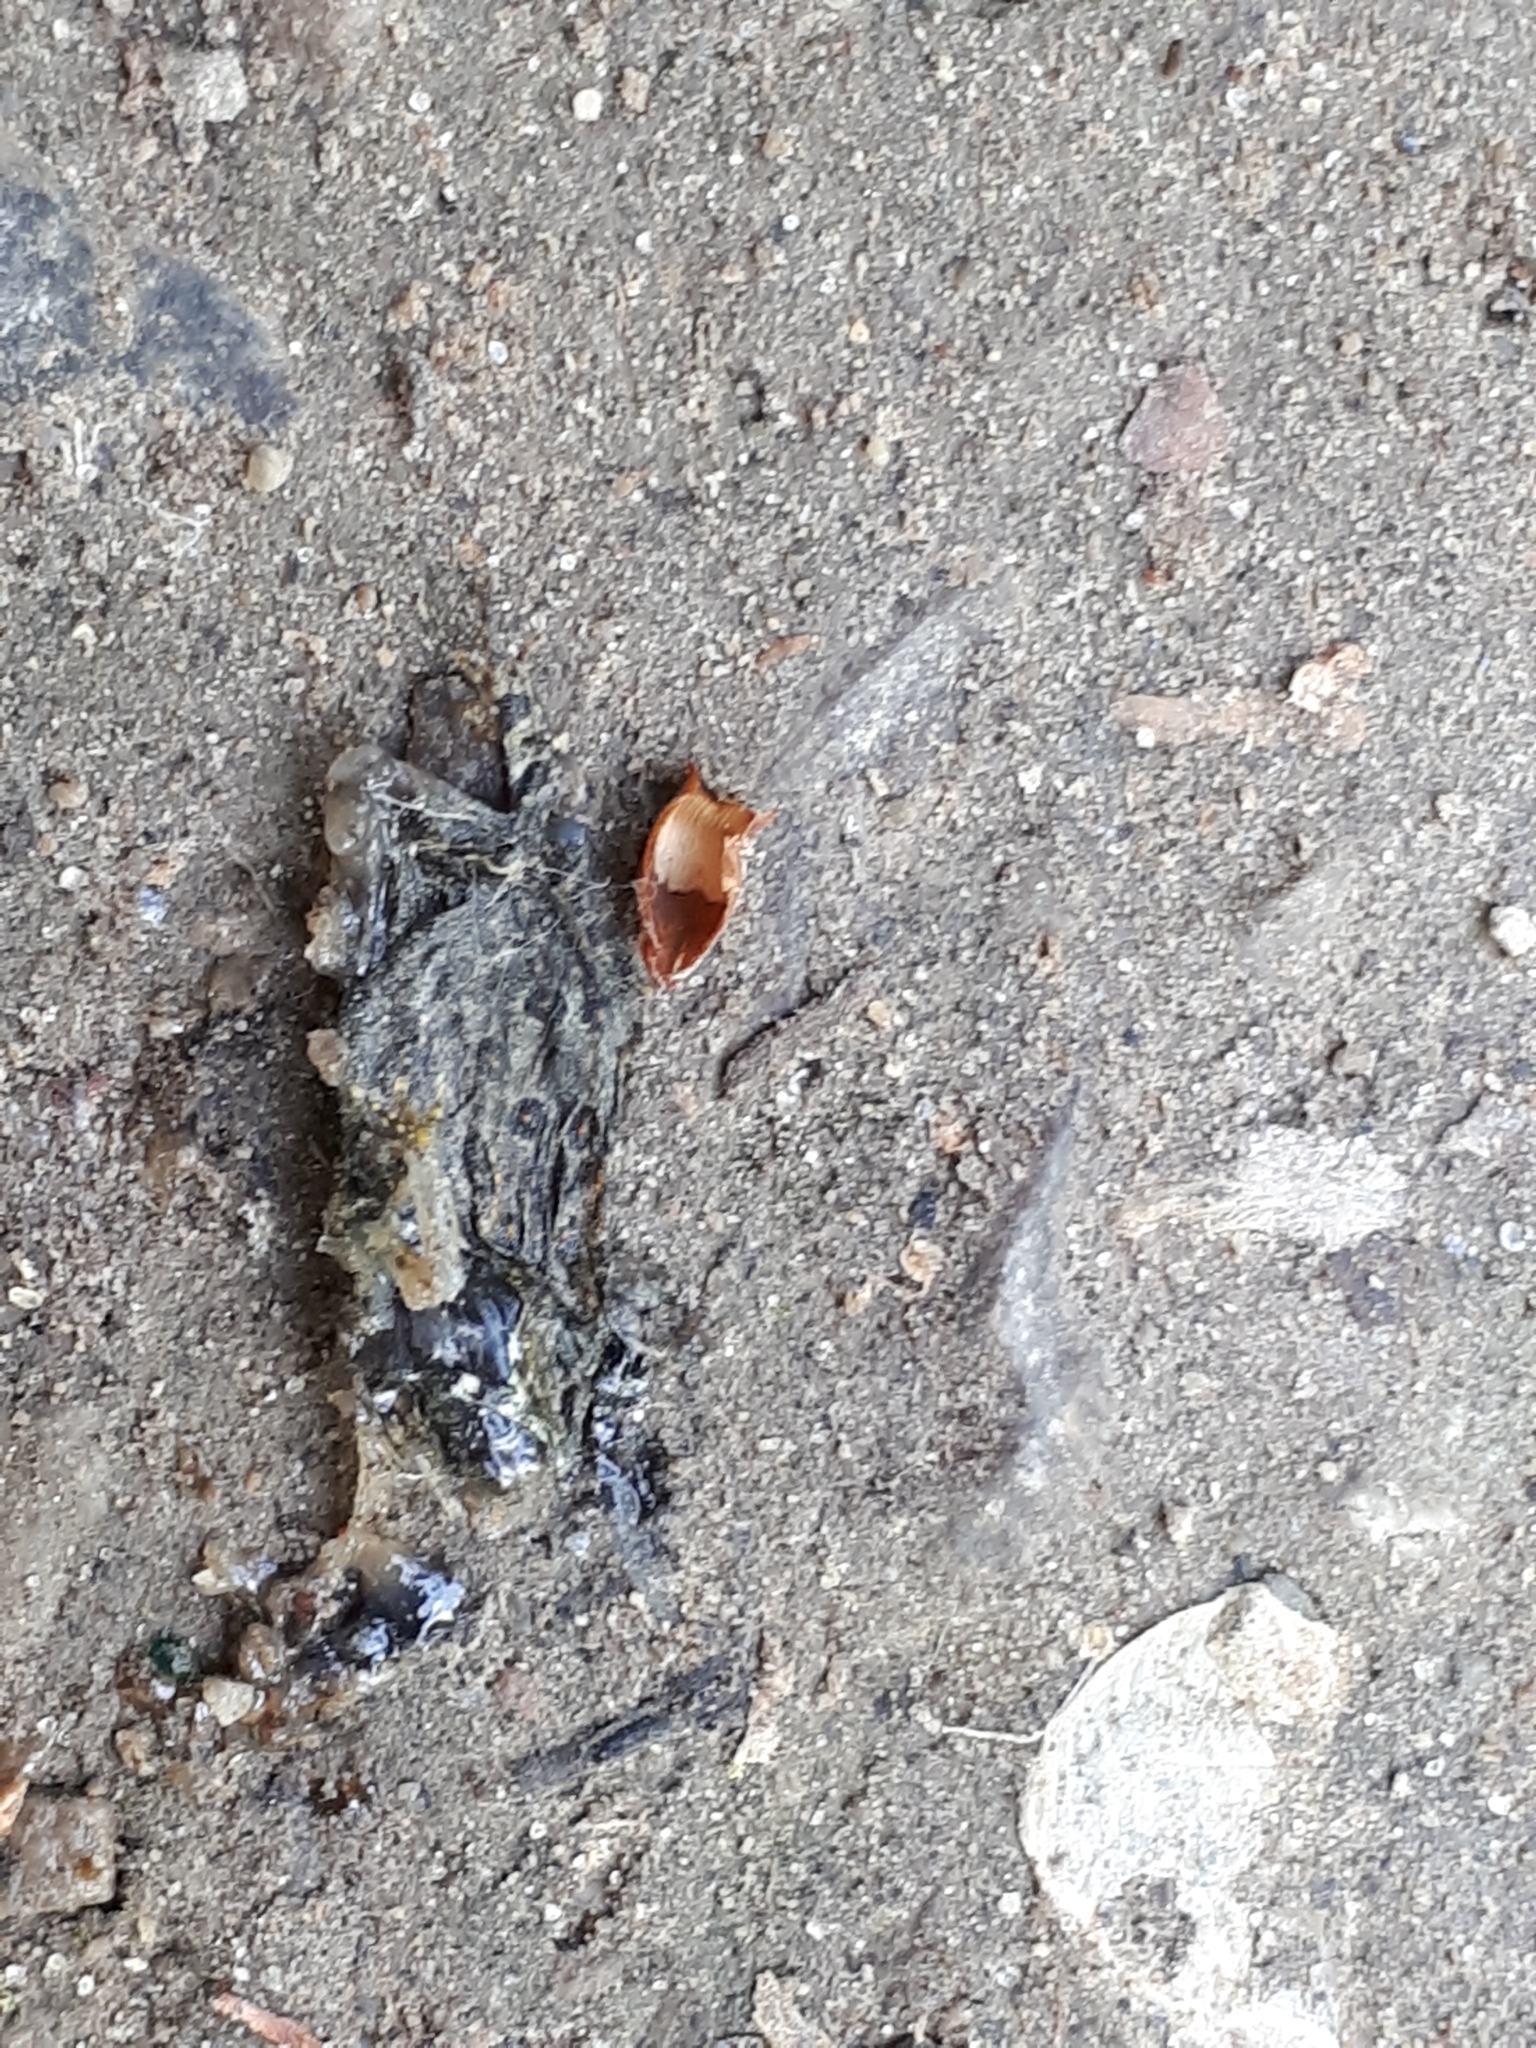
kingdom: Animalia
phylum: Chordata
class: Amphibia
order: Anura
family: Bufonidae
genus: Anaxyrus
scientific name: Anaxyrus americanus
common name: American toad
